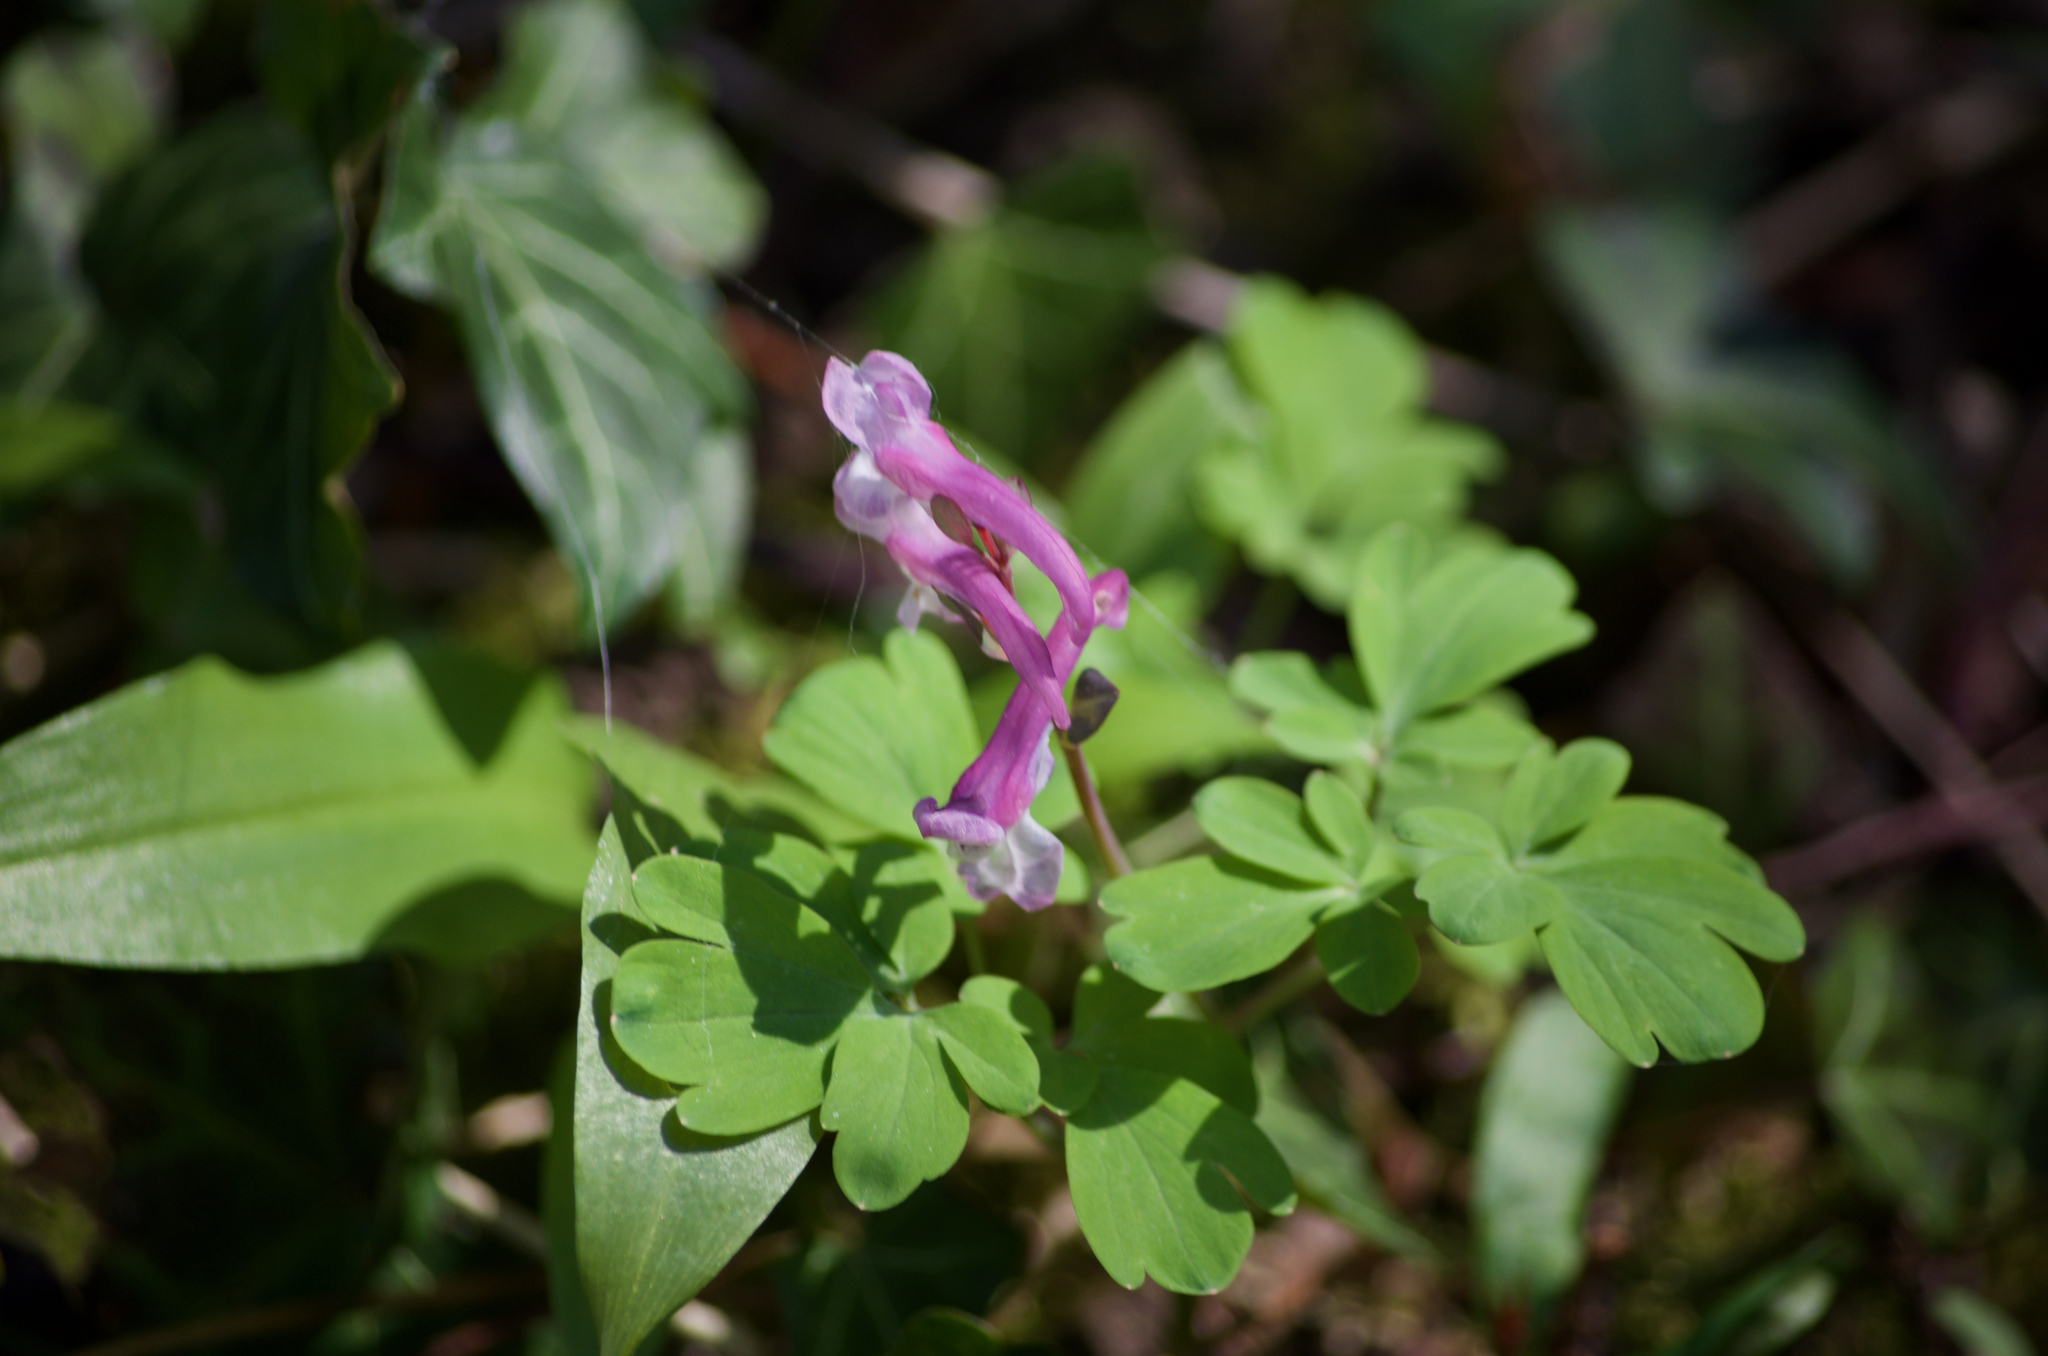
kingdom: Plantae
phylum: Tracheophyta
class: Magnoliopsida
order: Ranunculales
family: Papaveraceae
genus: Corydalis
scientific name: Corydalis cava
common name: Hollowroot
